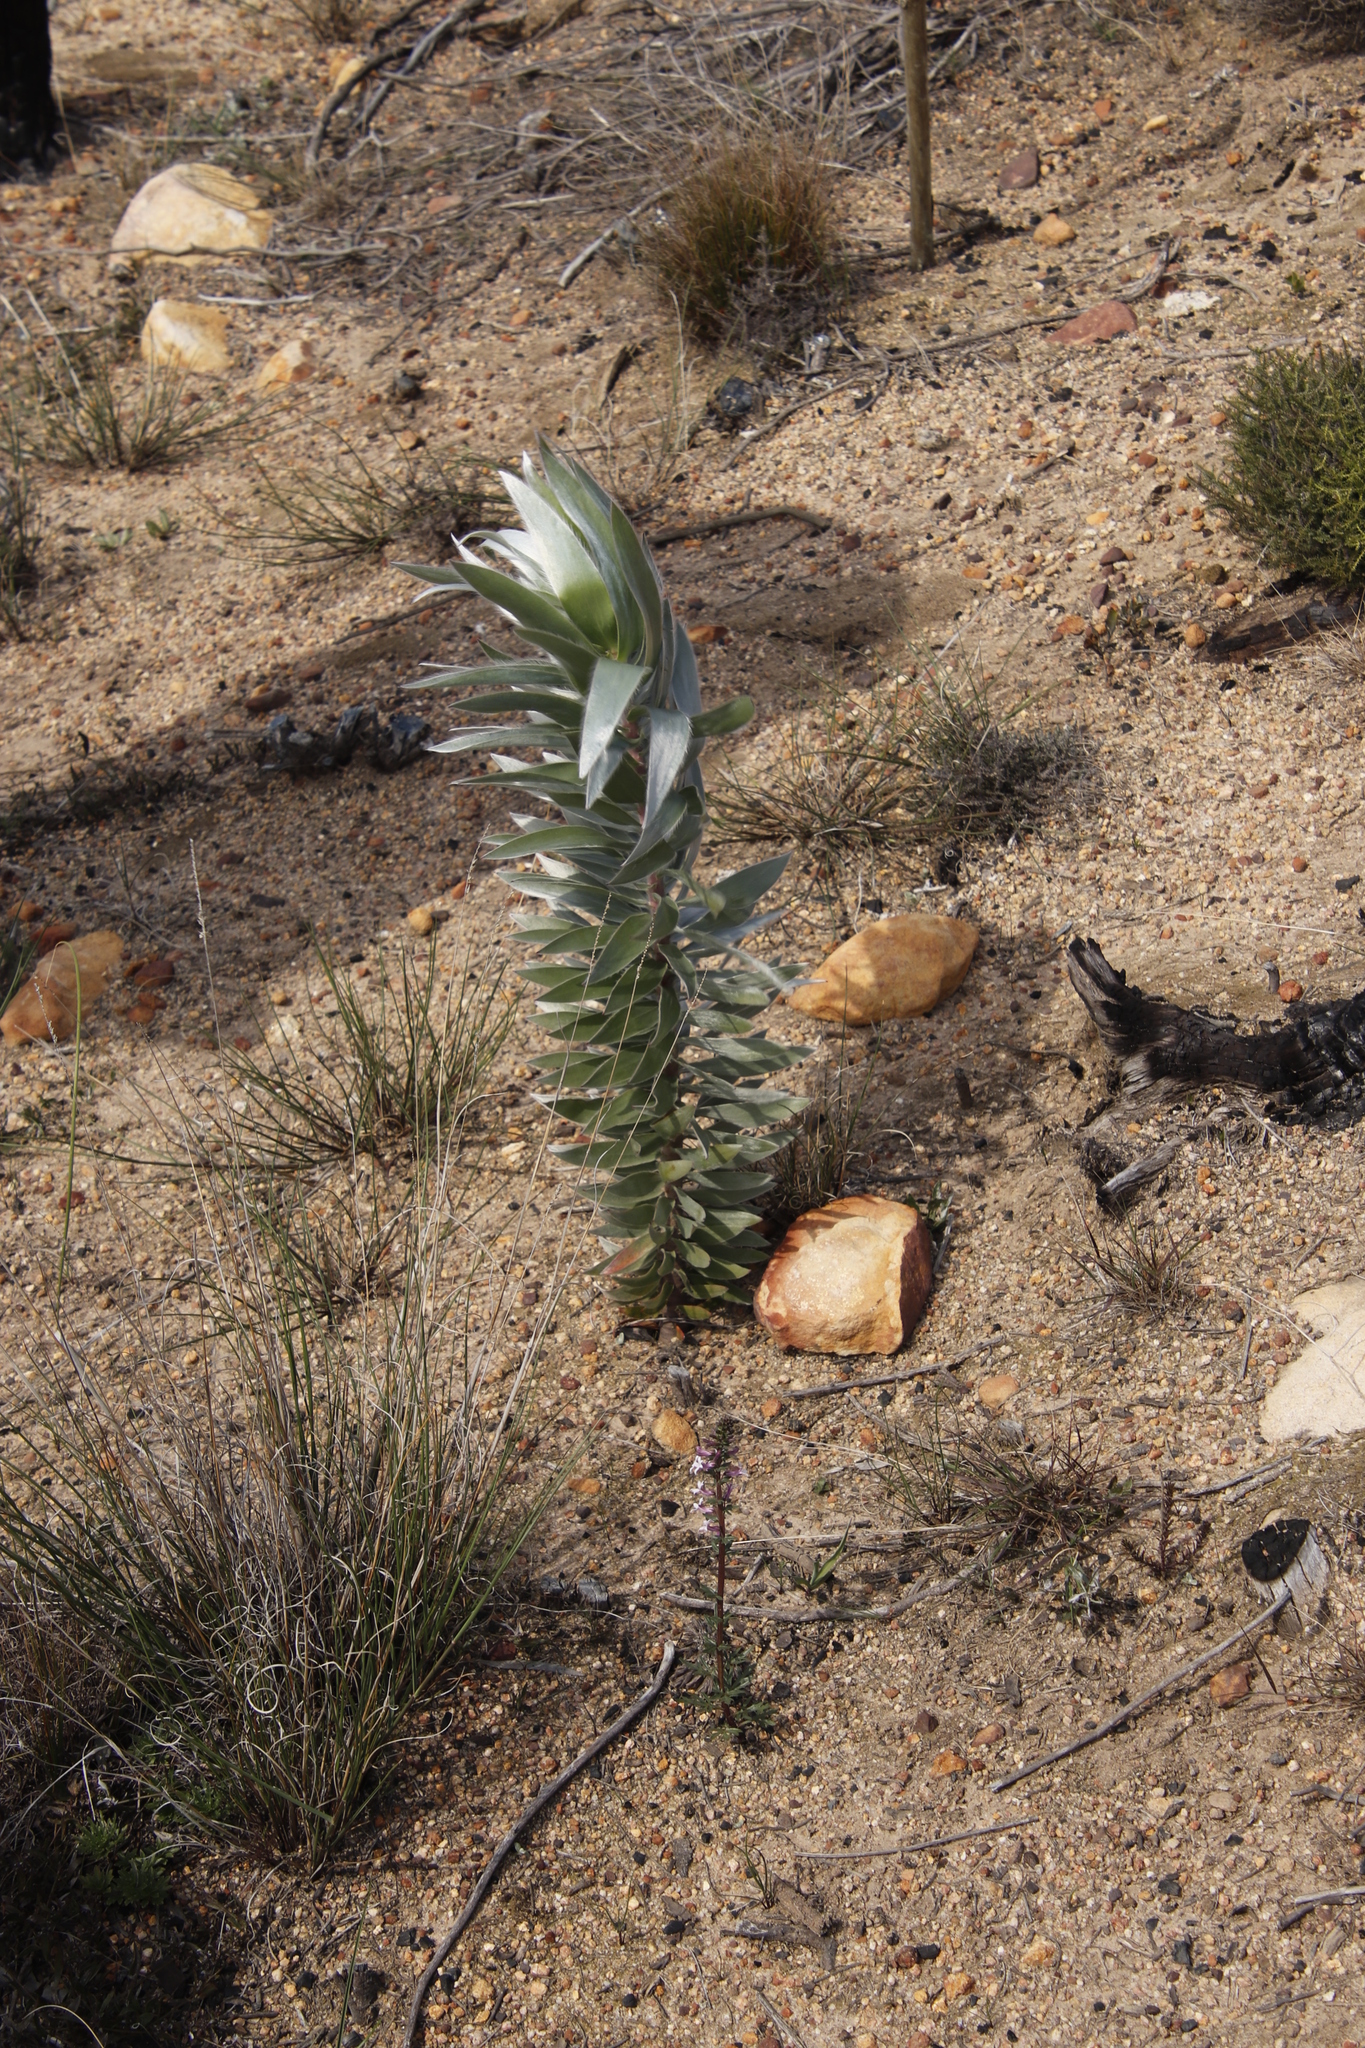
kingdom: Plantae
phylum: Tracheophyta
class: Magnoliopsida
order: Proteales
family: Proteaceae
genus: Leucadendron
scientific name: Leucadendron argenteum
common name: Cape silver tree
